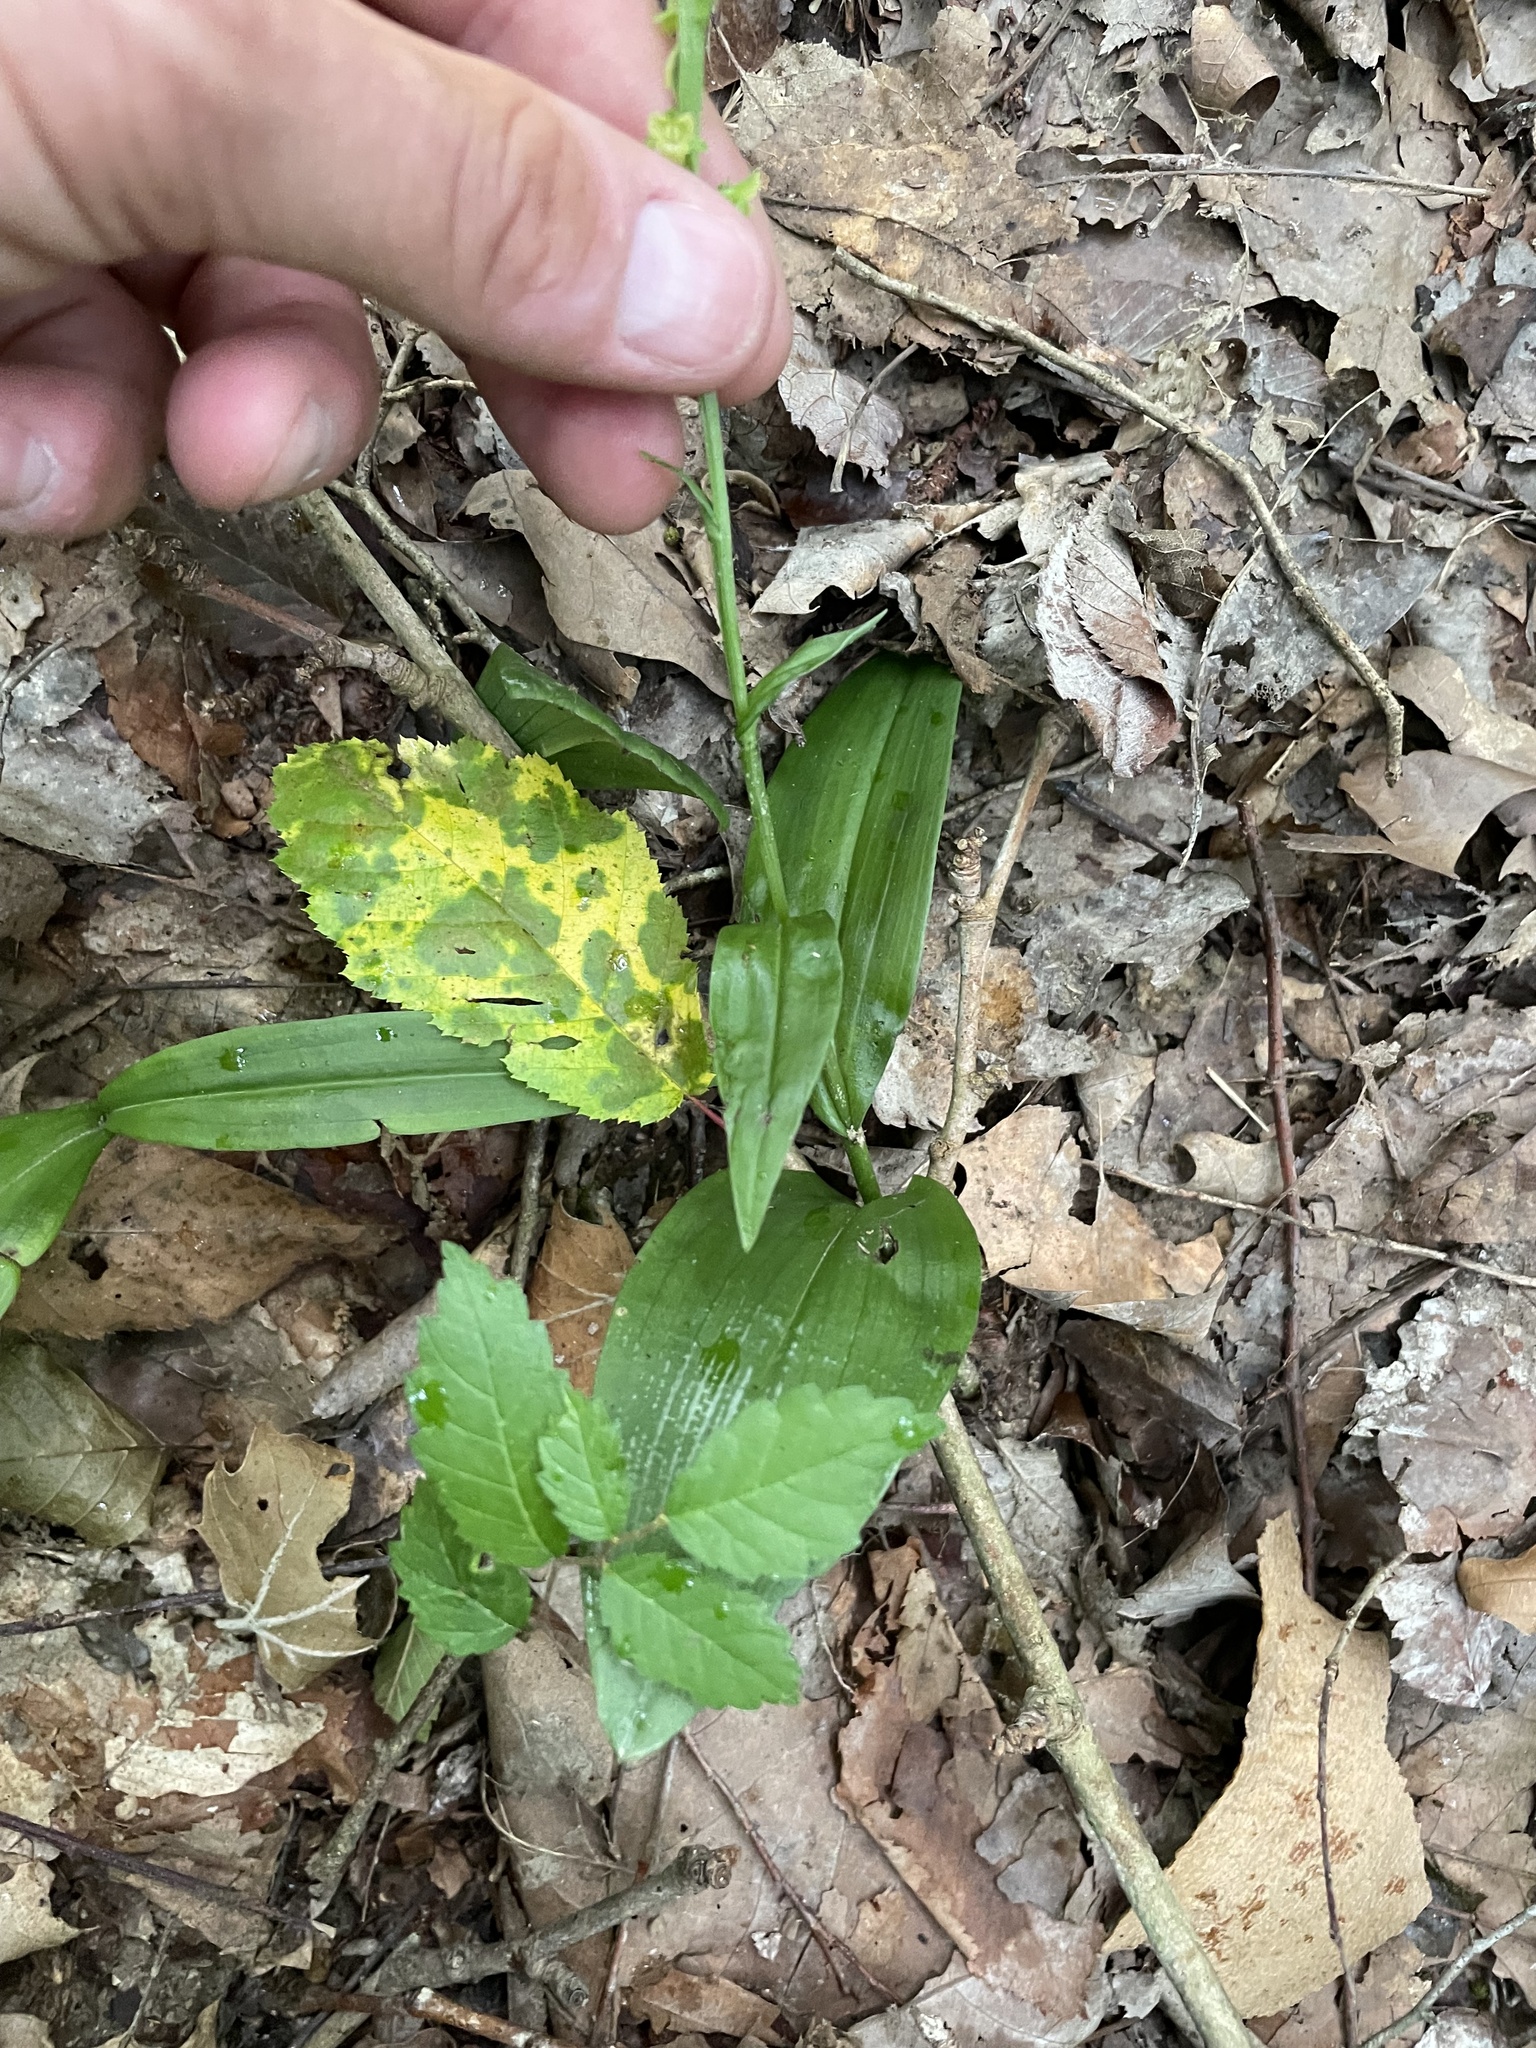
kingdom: Plantae
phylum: Tracheophyta
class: Liliopsida
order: Asparagales
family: Orchidaceae
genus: Platanthera
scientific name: Platanthera flava
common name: Gypsy-spikes
